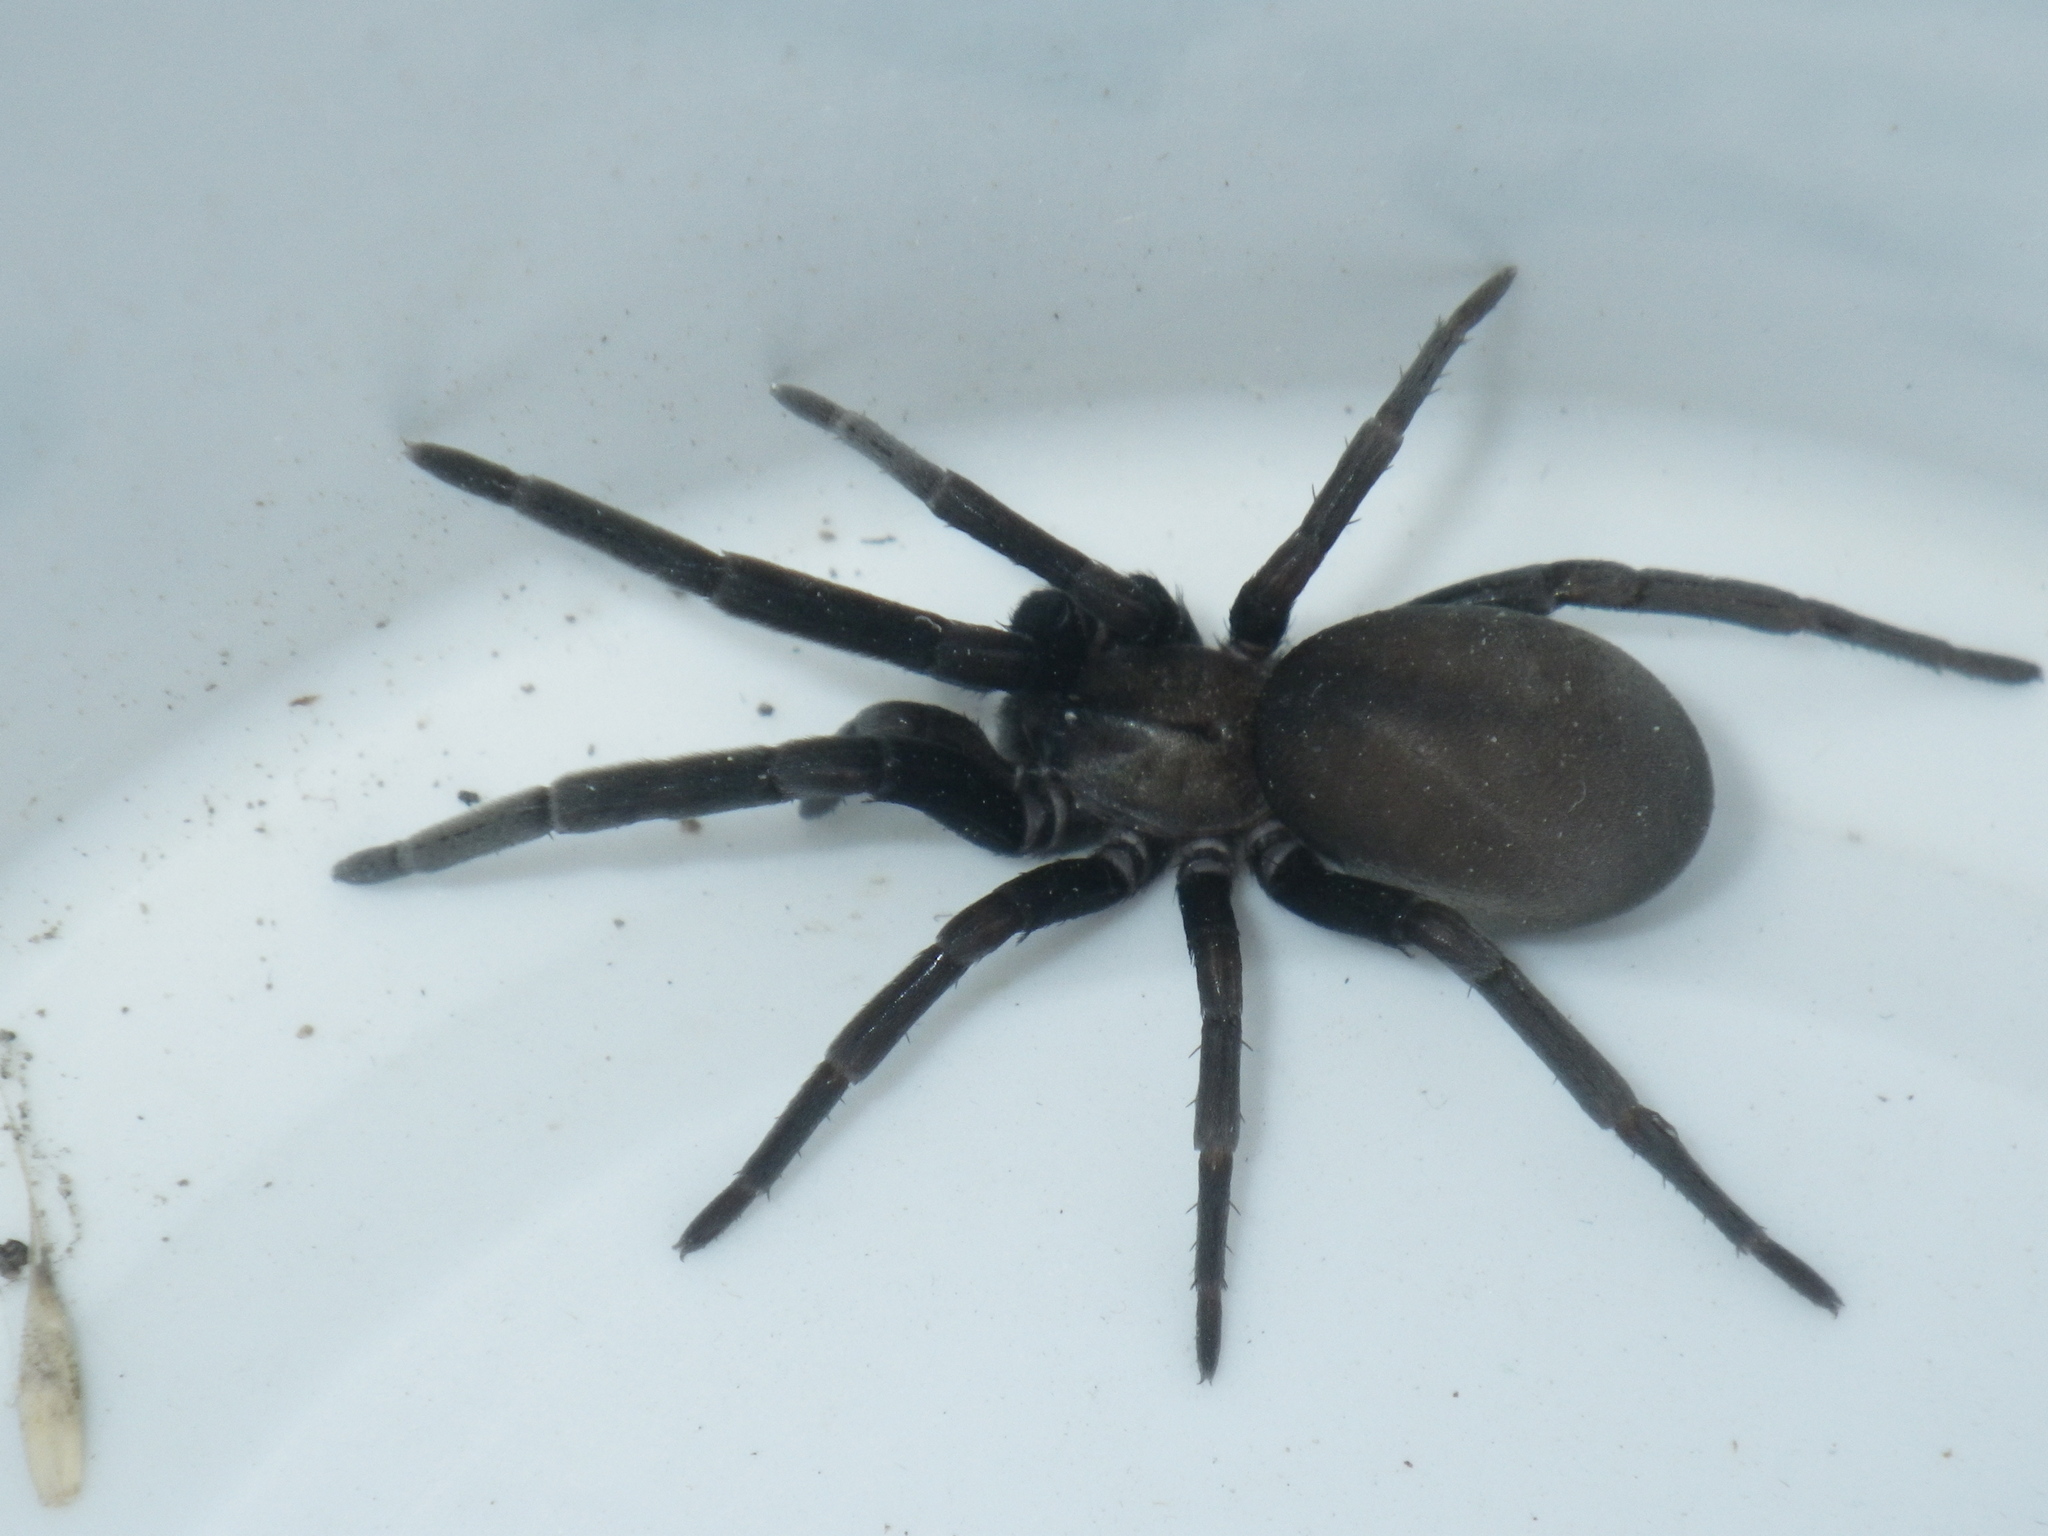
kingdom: Animalia
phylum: Arthropoda
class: Arachnida
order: Araneae
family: Filistatidae
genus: Kukulcania
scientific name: Kukulcania
